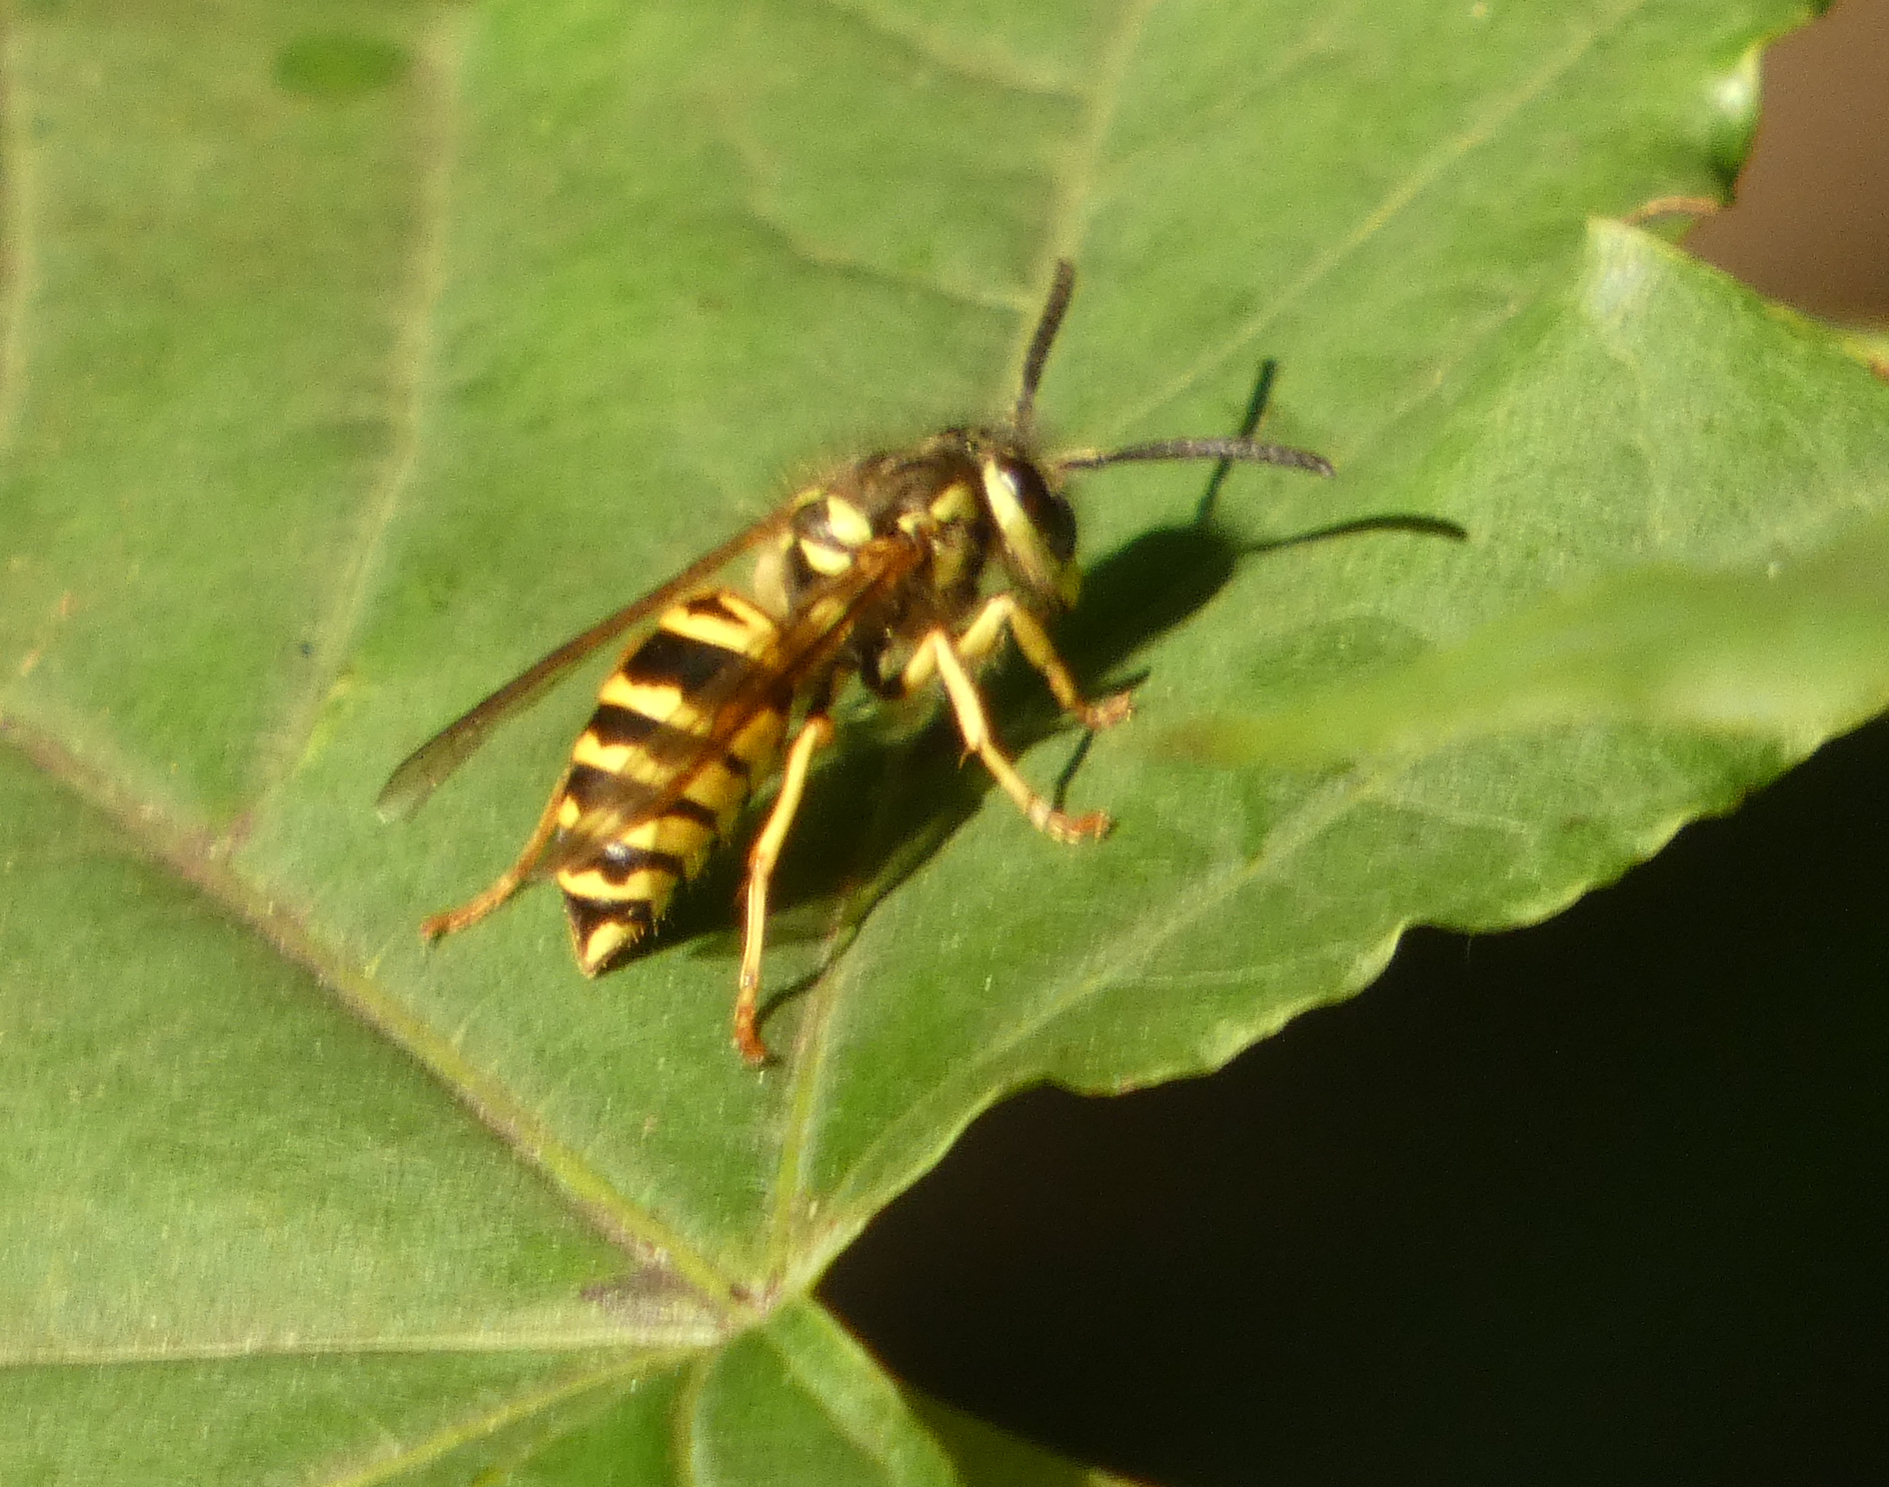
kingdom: Animalia
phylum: Arthropoda
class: Insecta
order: Hymenoptera
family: Vespidae
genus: Vespula
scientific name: Vespula maculifrons
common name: Eastern yellowjacket
